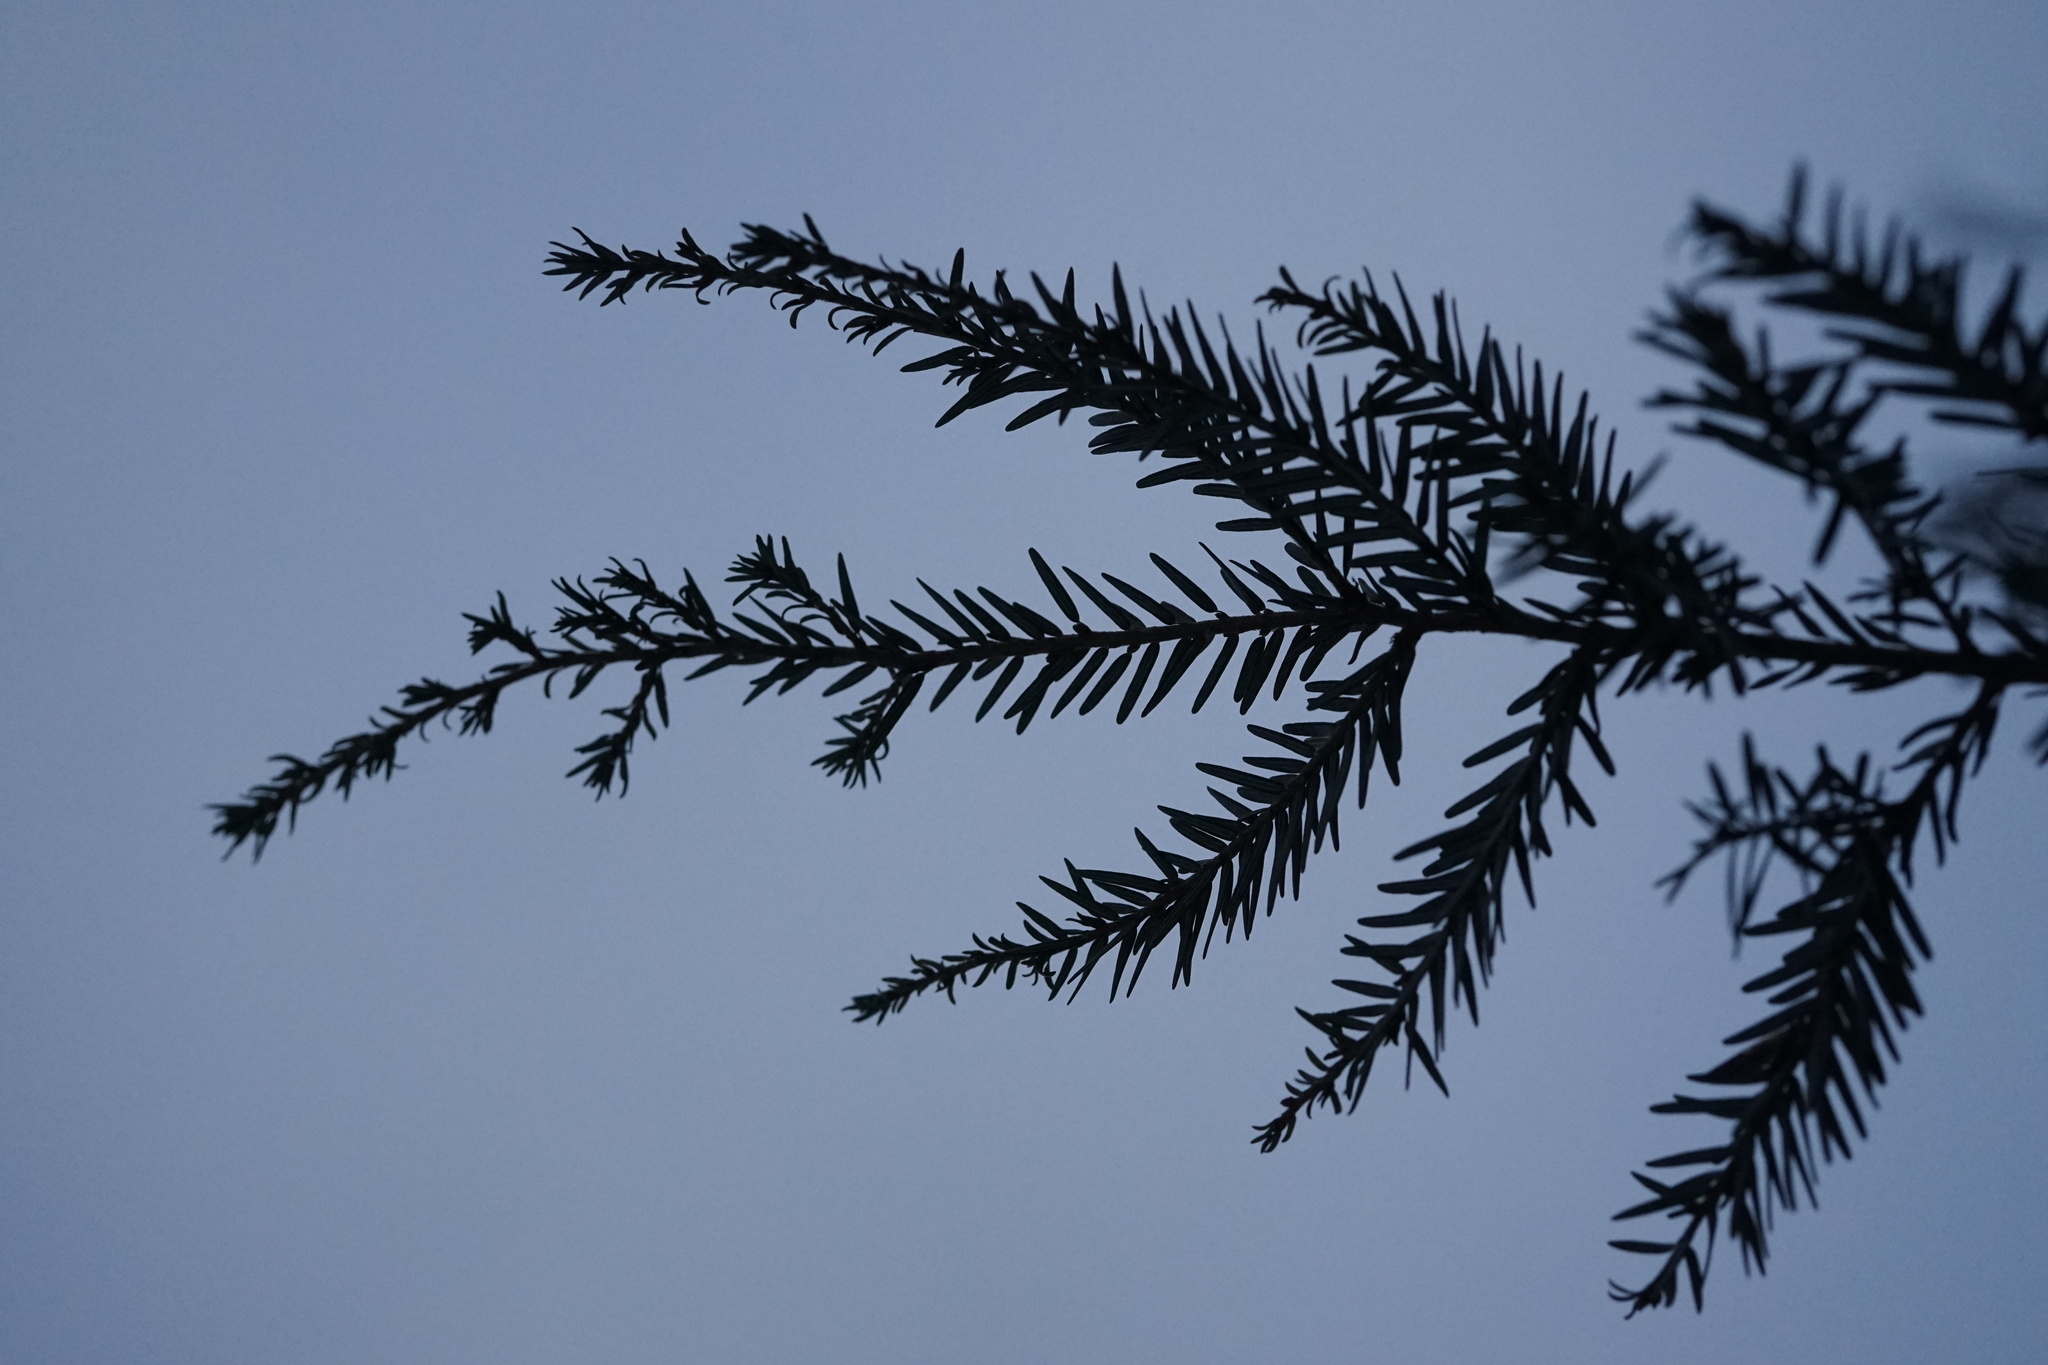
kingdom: Plantae
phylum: Tracheophyta
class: Pinopsida
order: Pinales
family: Pinaceae
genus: Tsuga
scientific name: Tsuga canadensis
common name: Eastern hemlock
